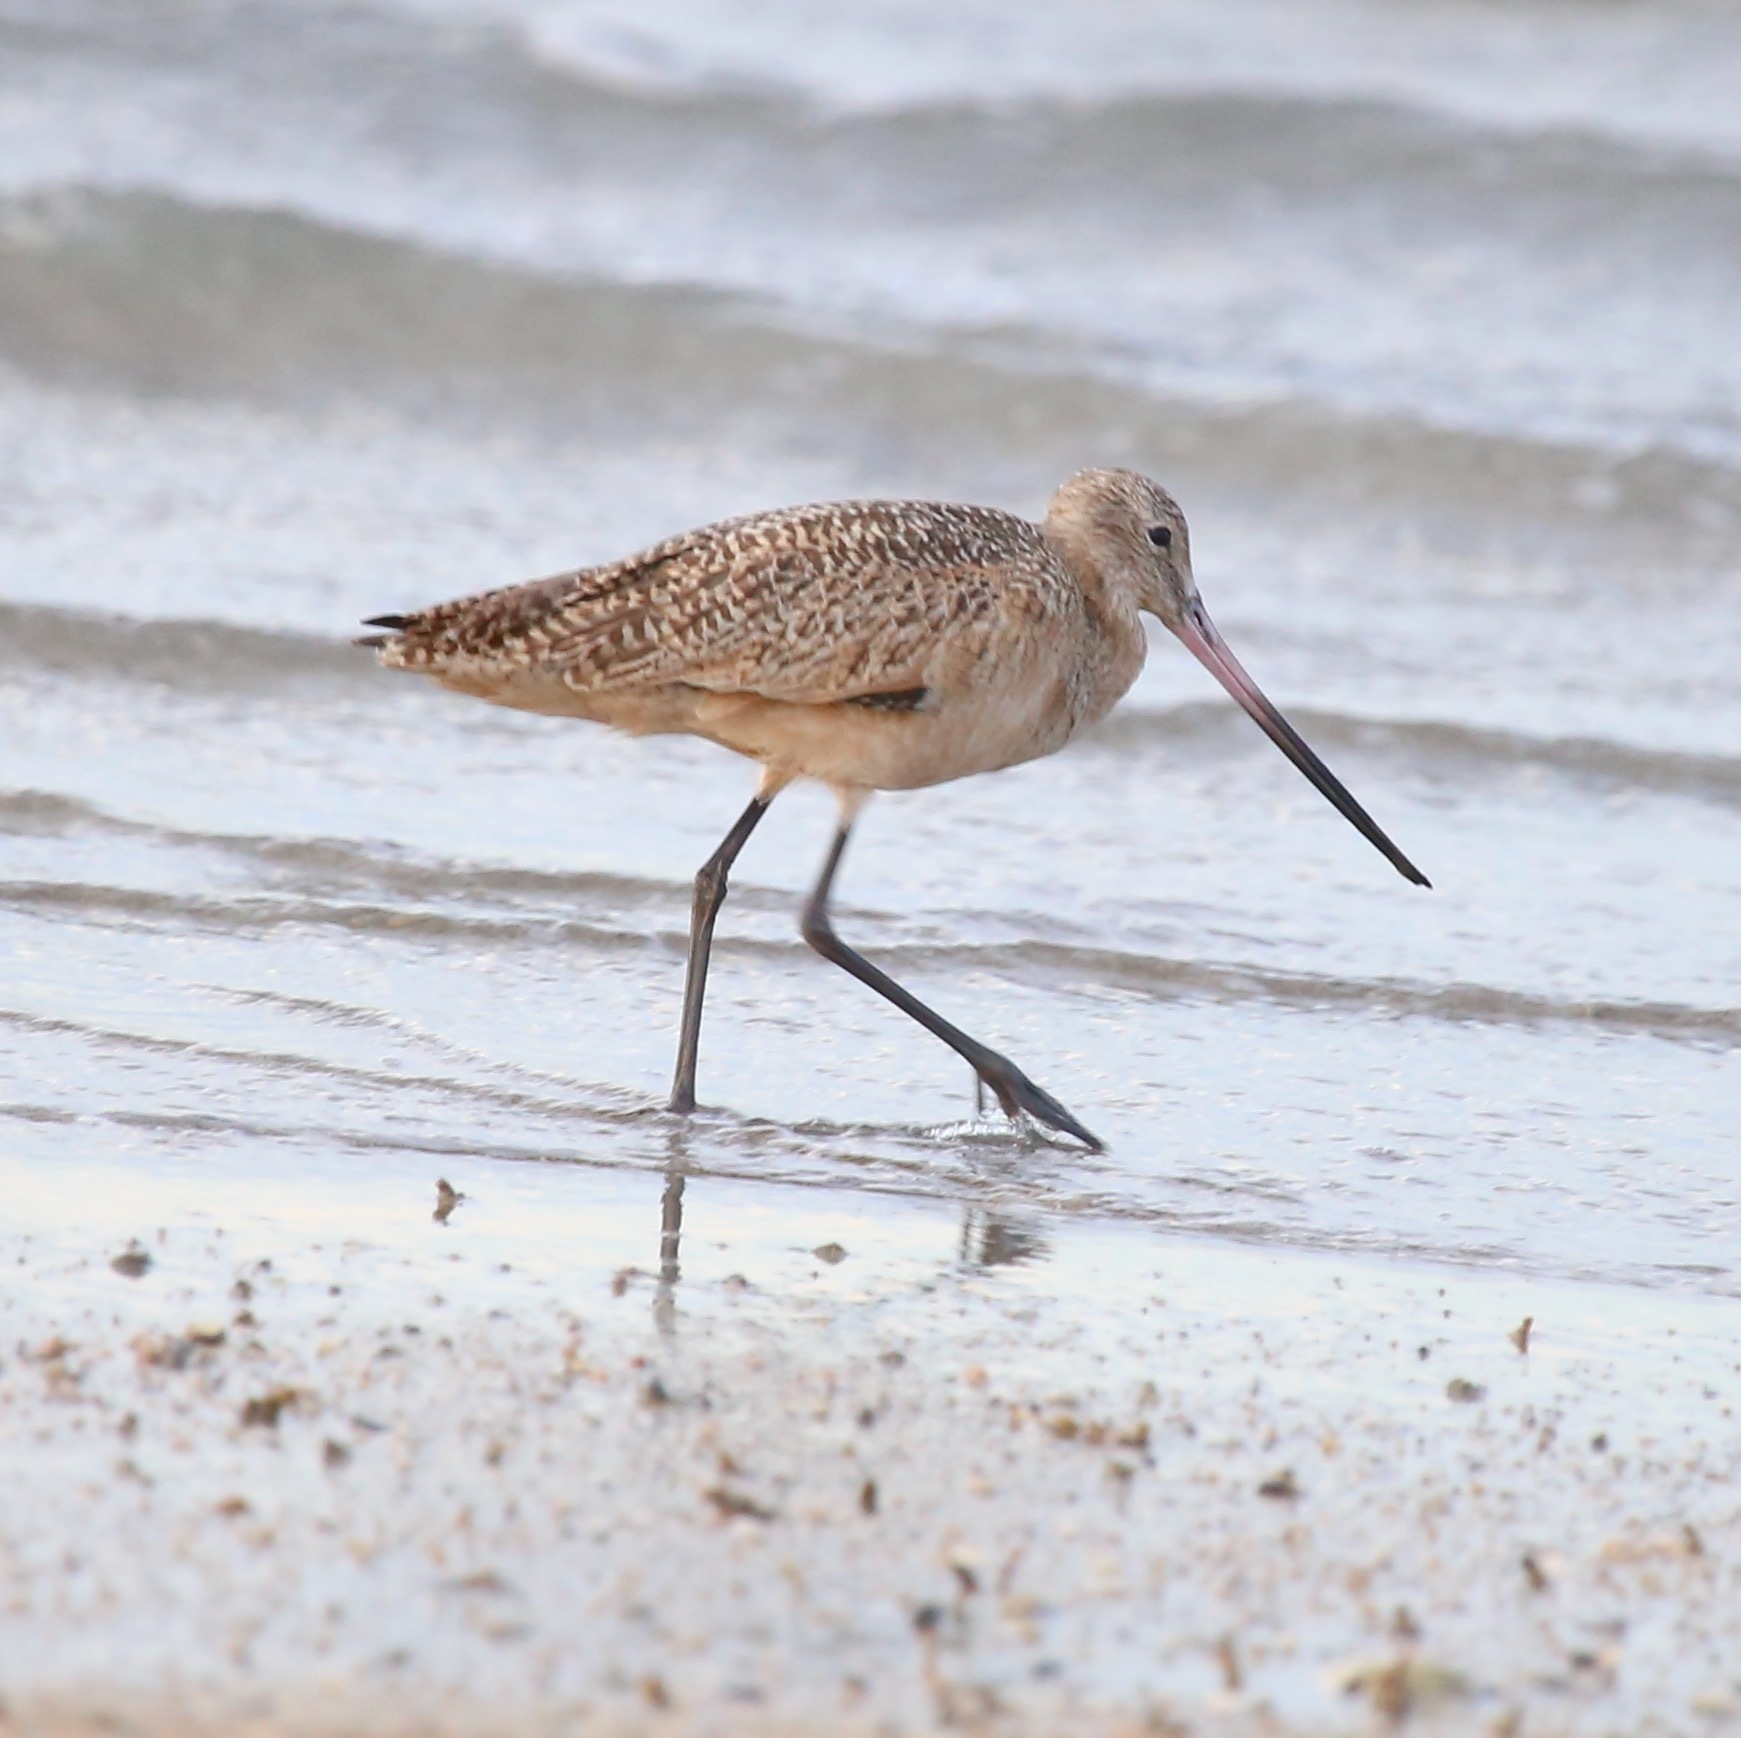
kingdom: Animalia
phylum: Chordata
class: Aves
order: Charadriiformes
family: Scolopacidae
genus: Limosa
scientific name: Limosa fedoa
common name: Marbled godwit
